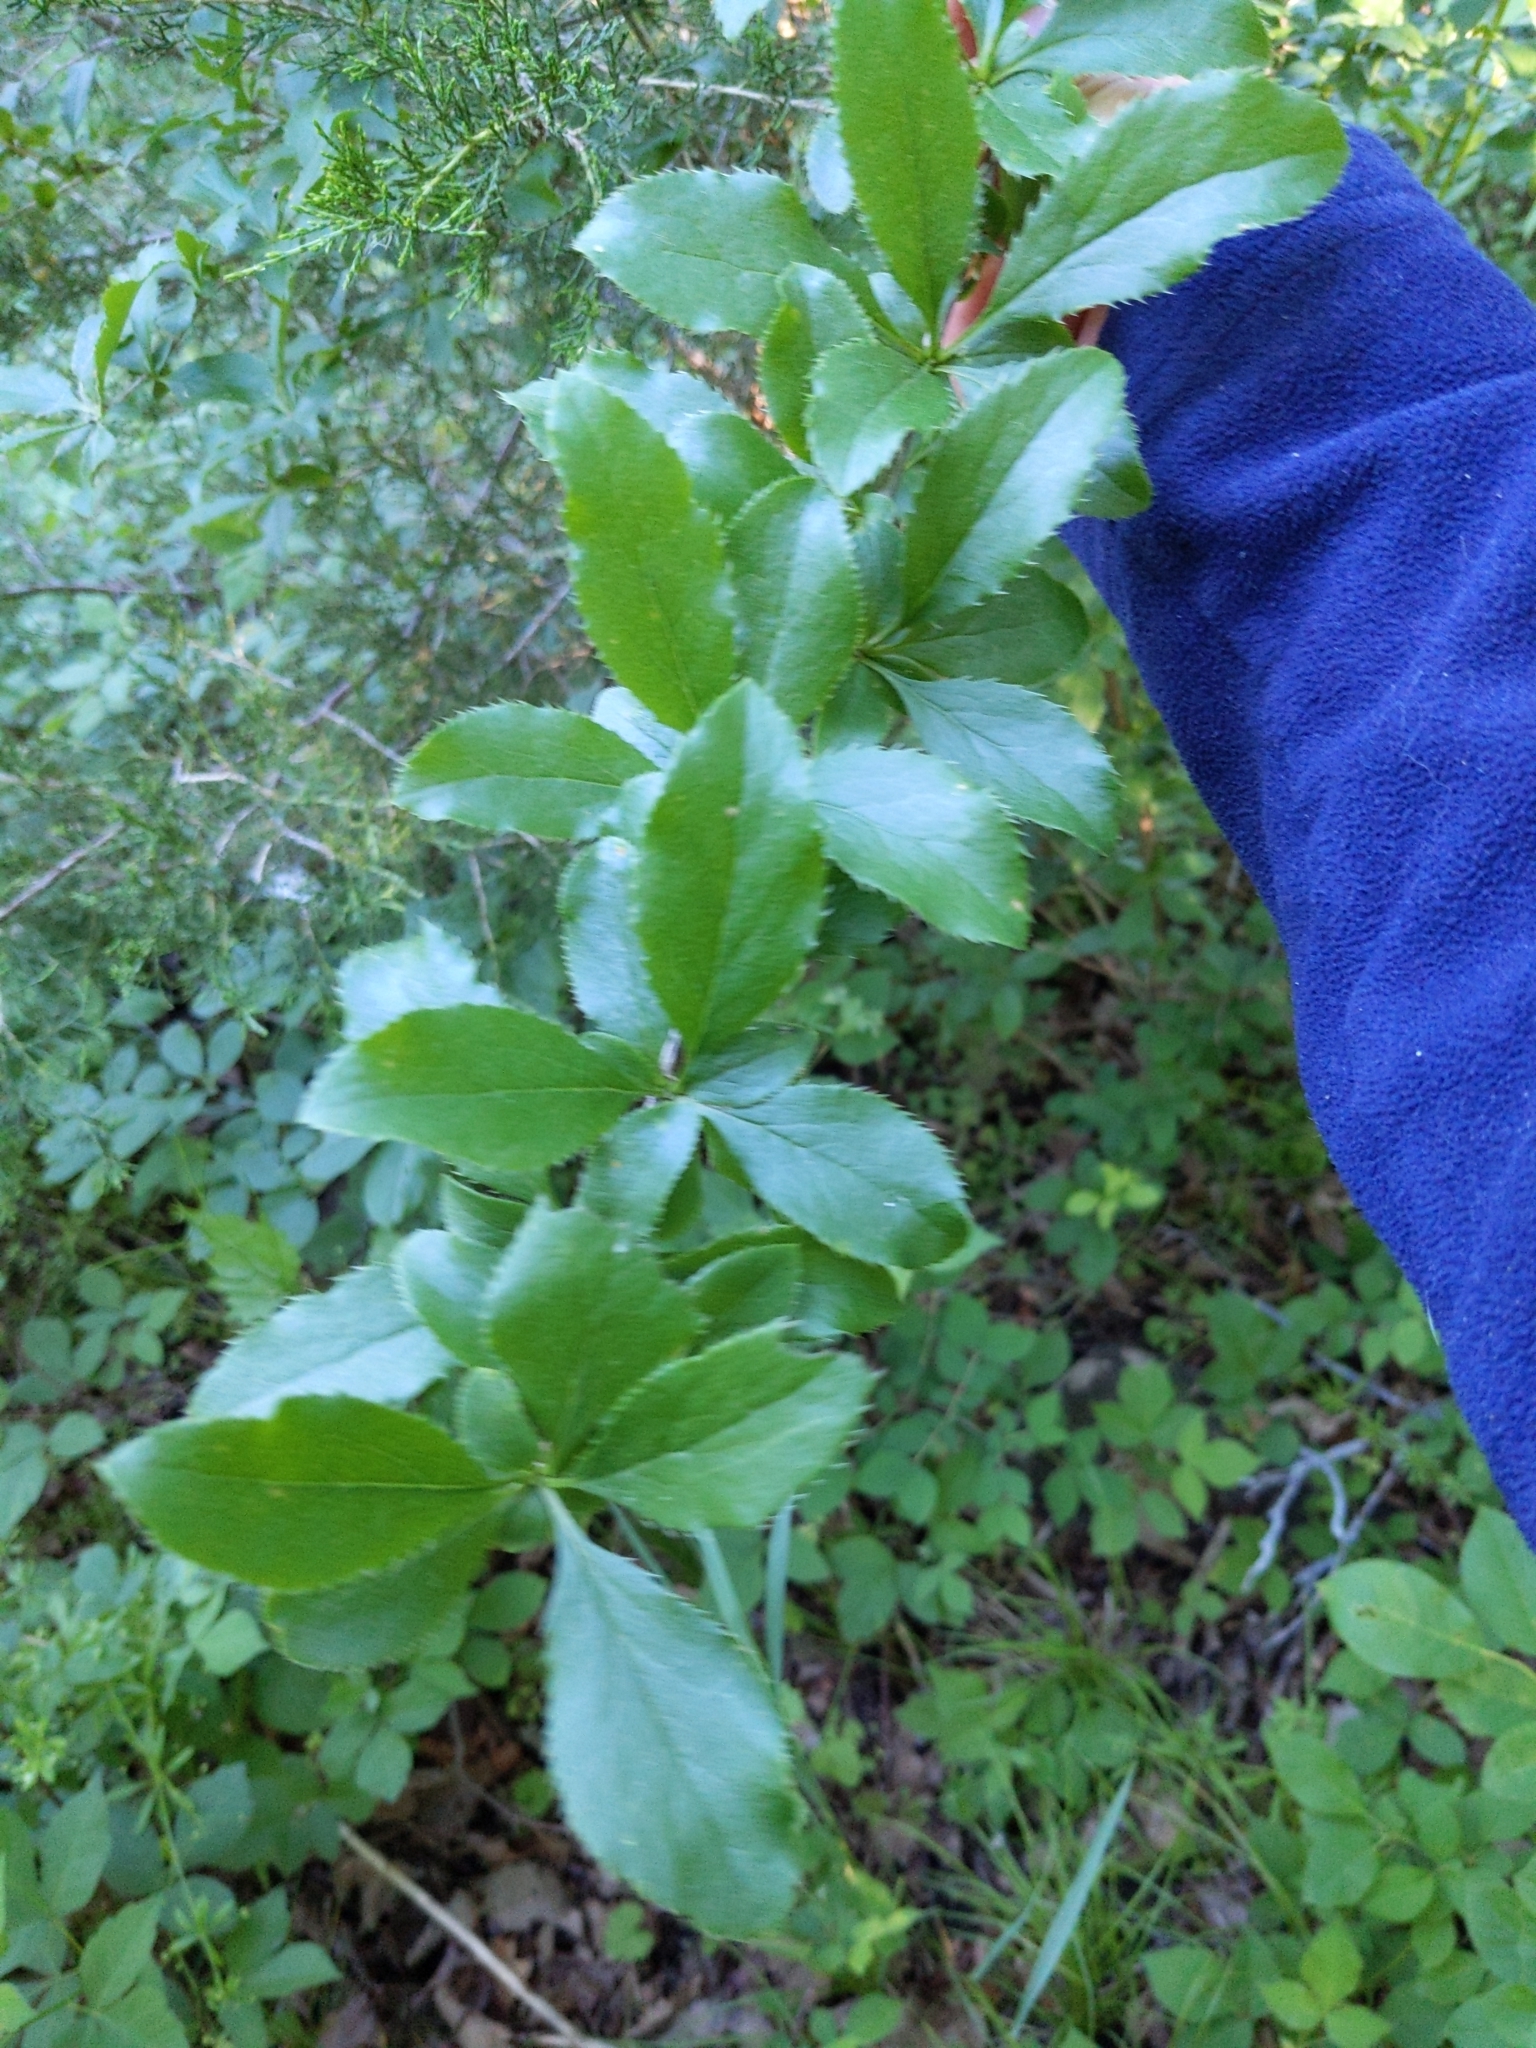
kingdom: Plantae
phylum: Tracheophyta
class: Magnoliopsida
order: Ranunculales
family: Berberidaceae
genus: Berberis
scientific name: Berberis vulgaris
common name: Barberry
